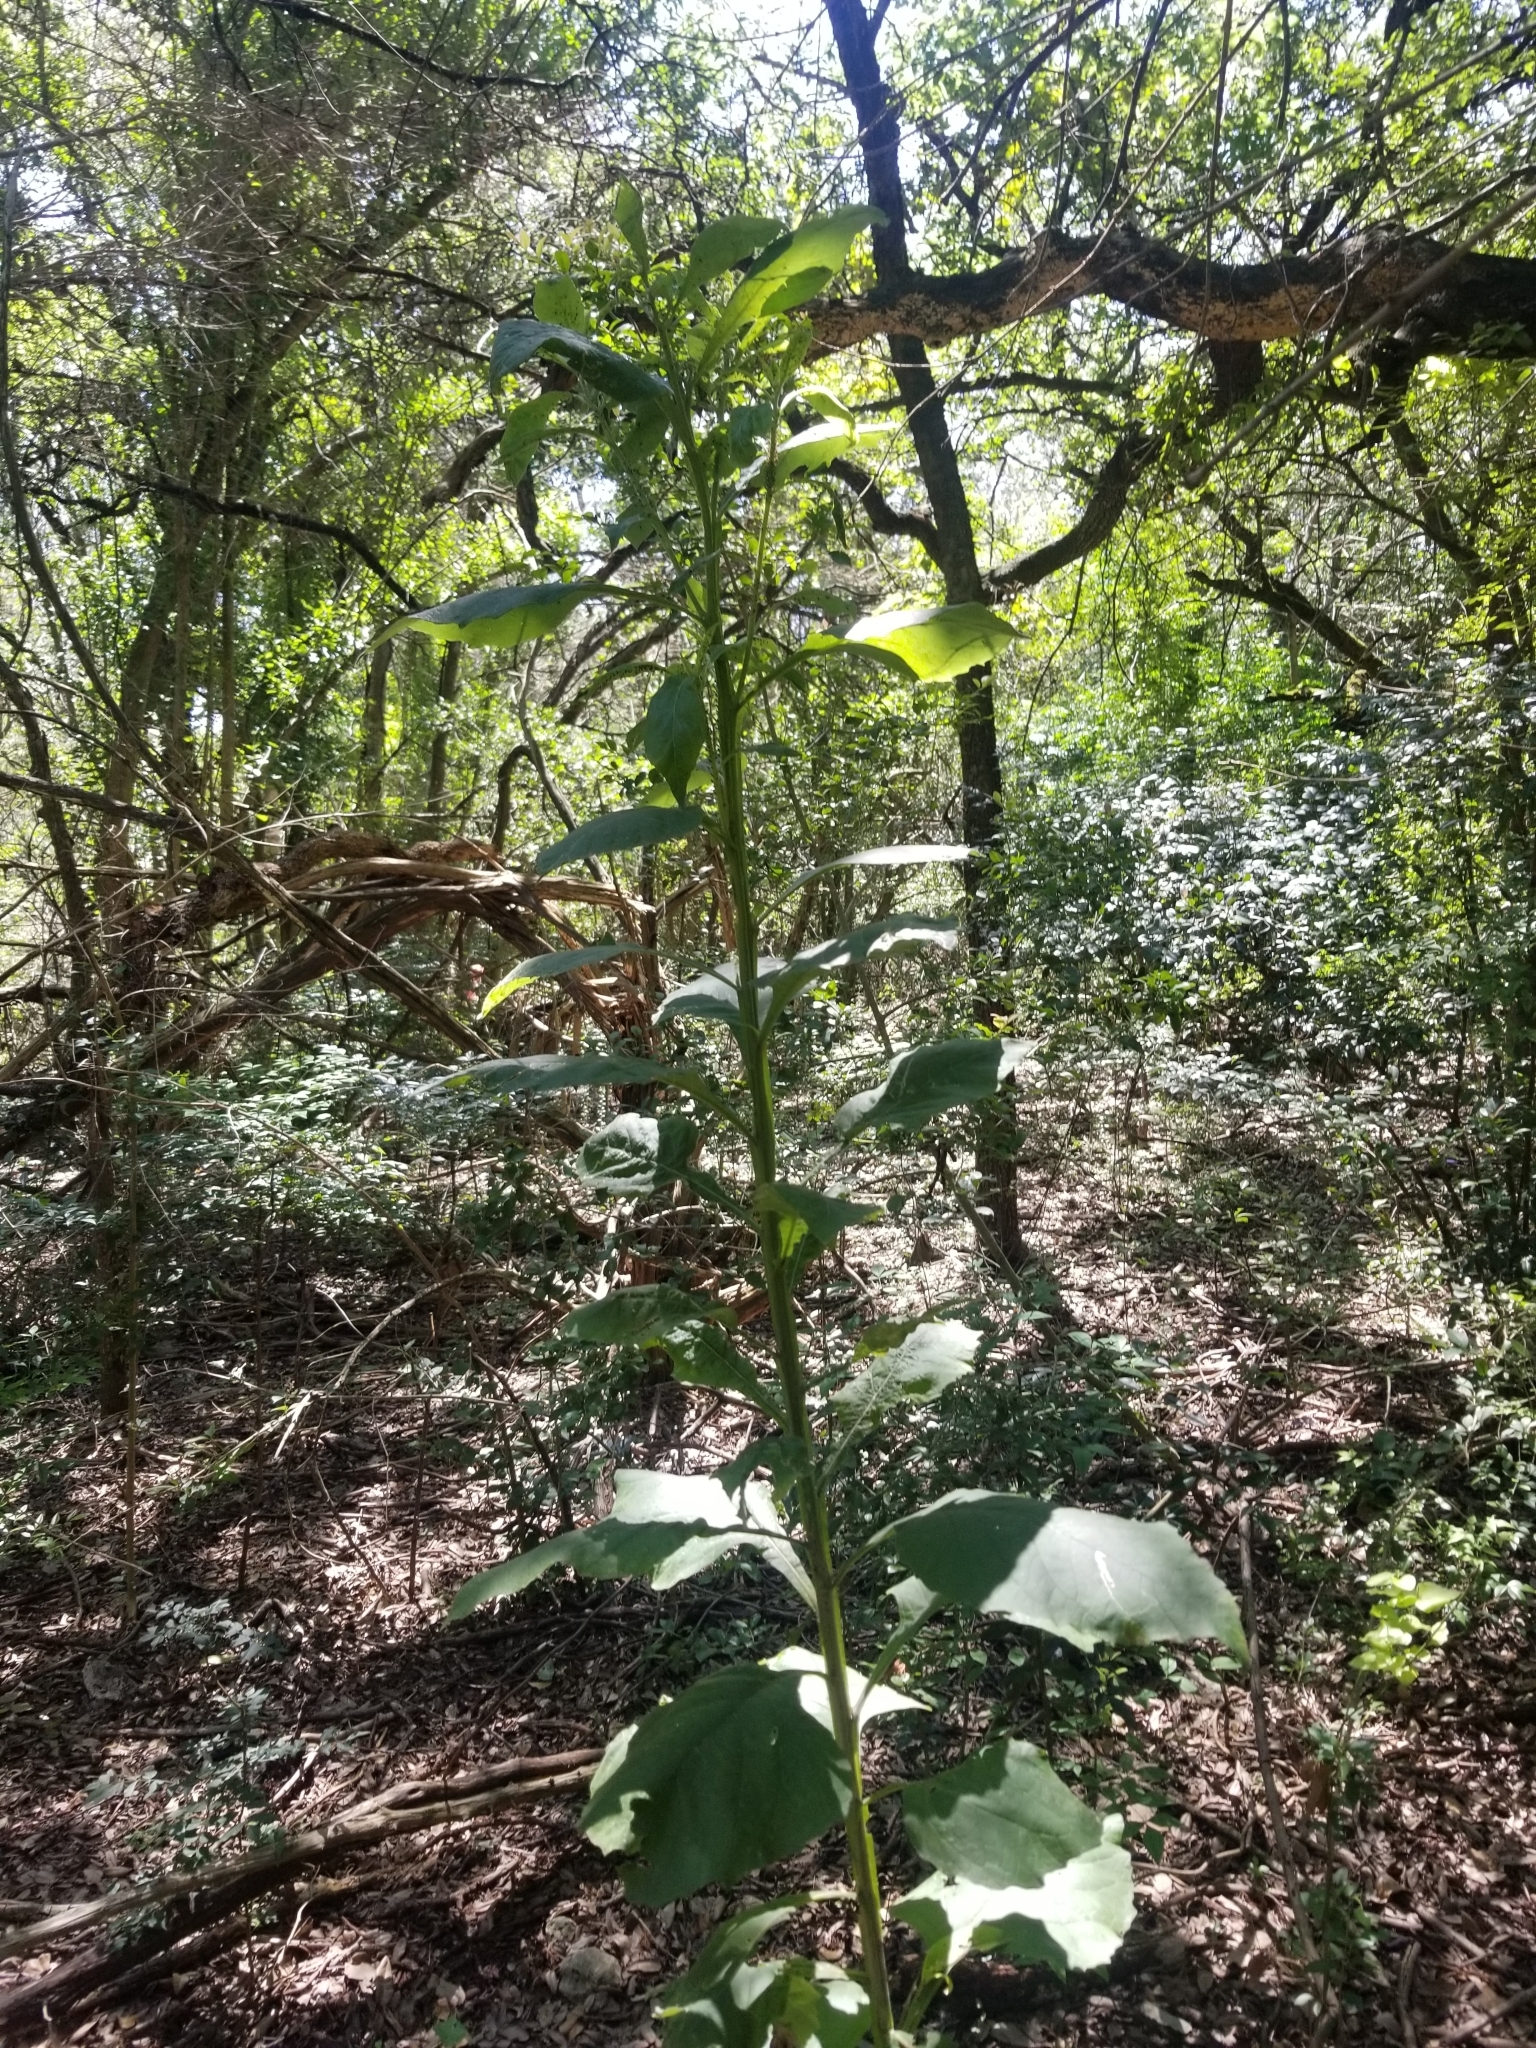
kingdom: Plantae
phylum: Tracheophyta
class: Magnoliopsida
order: Asterales
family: Asteraceae
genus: Verbesina
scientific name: Verbesina virginica
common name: Frostweed
